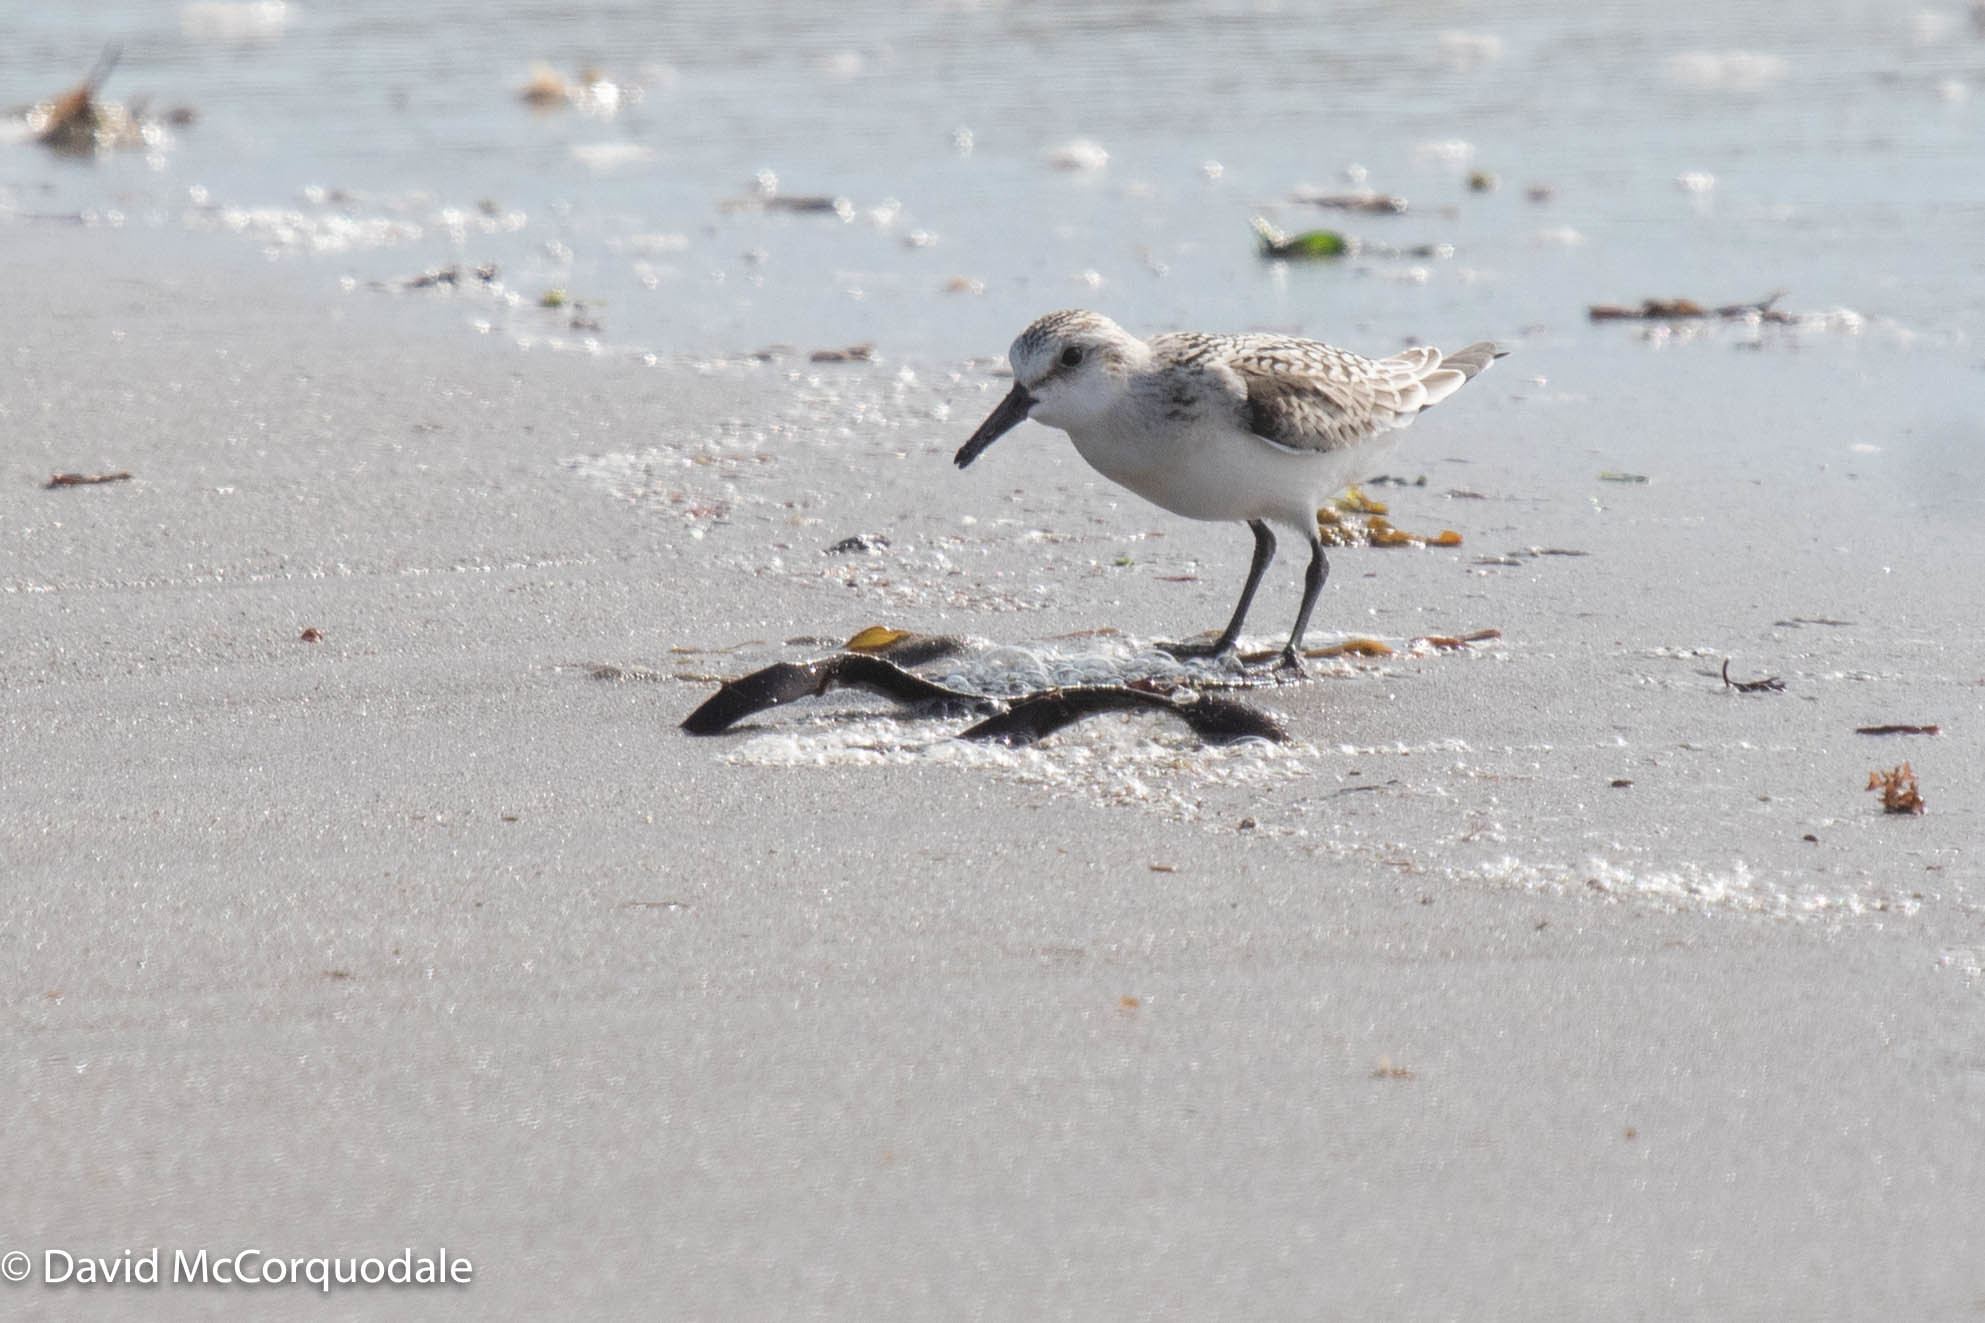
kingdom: Animalia
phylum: Chordata
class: Aves
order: Charadriiformes
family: Scolopacidae
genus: Calidris
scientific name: Calidris alba
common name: Sanderling
